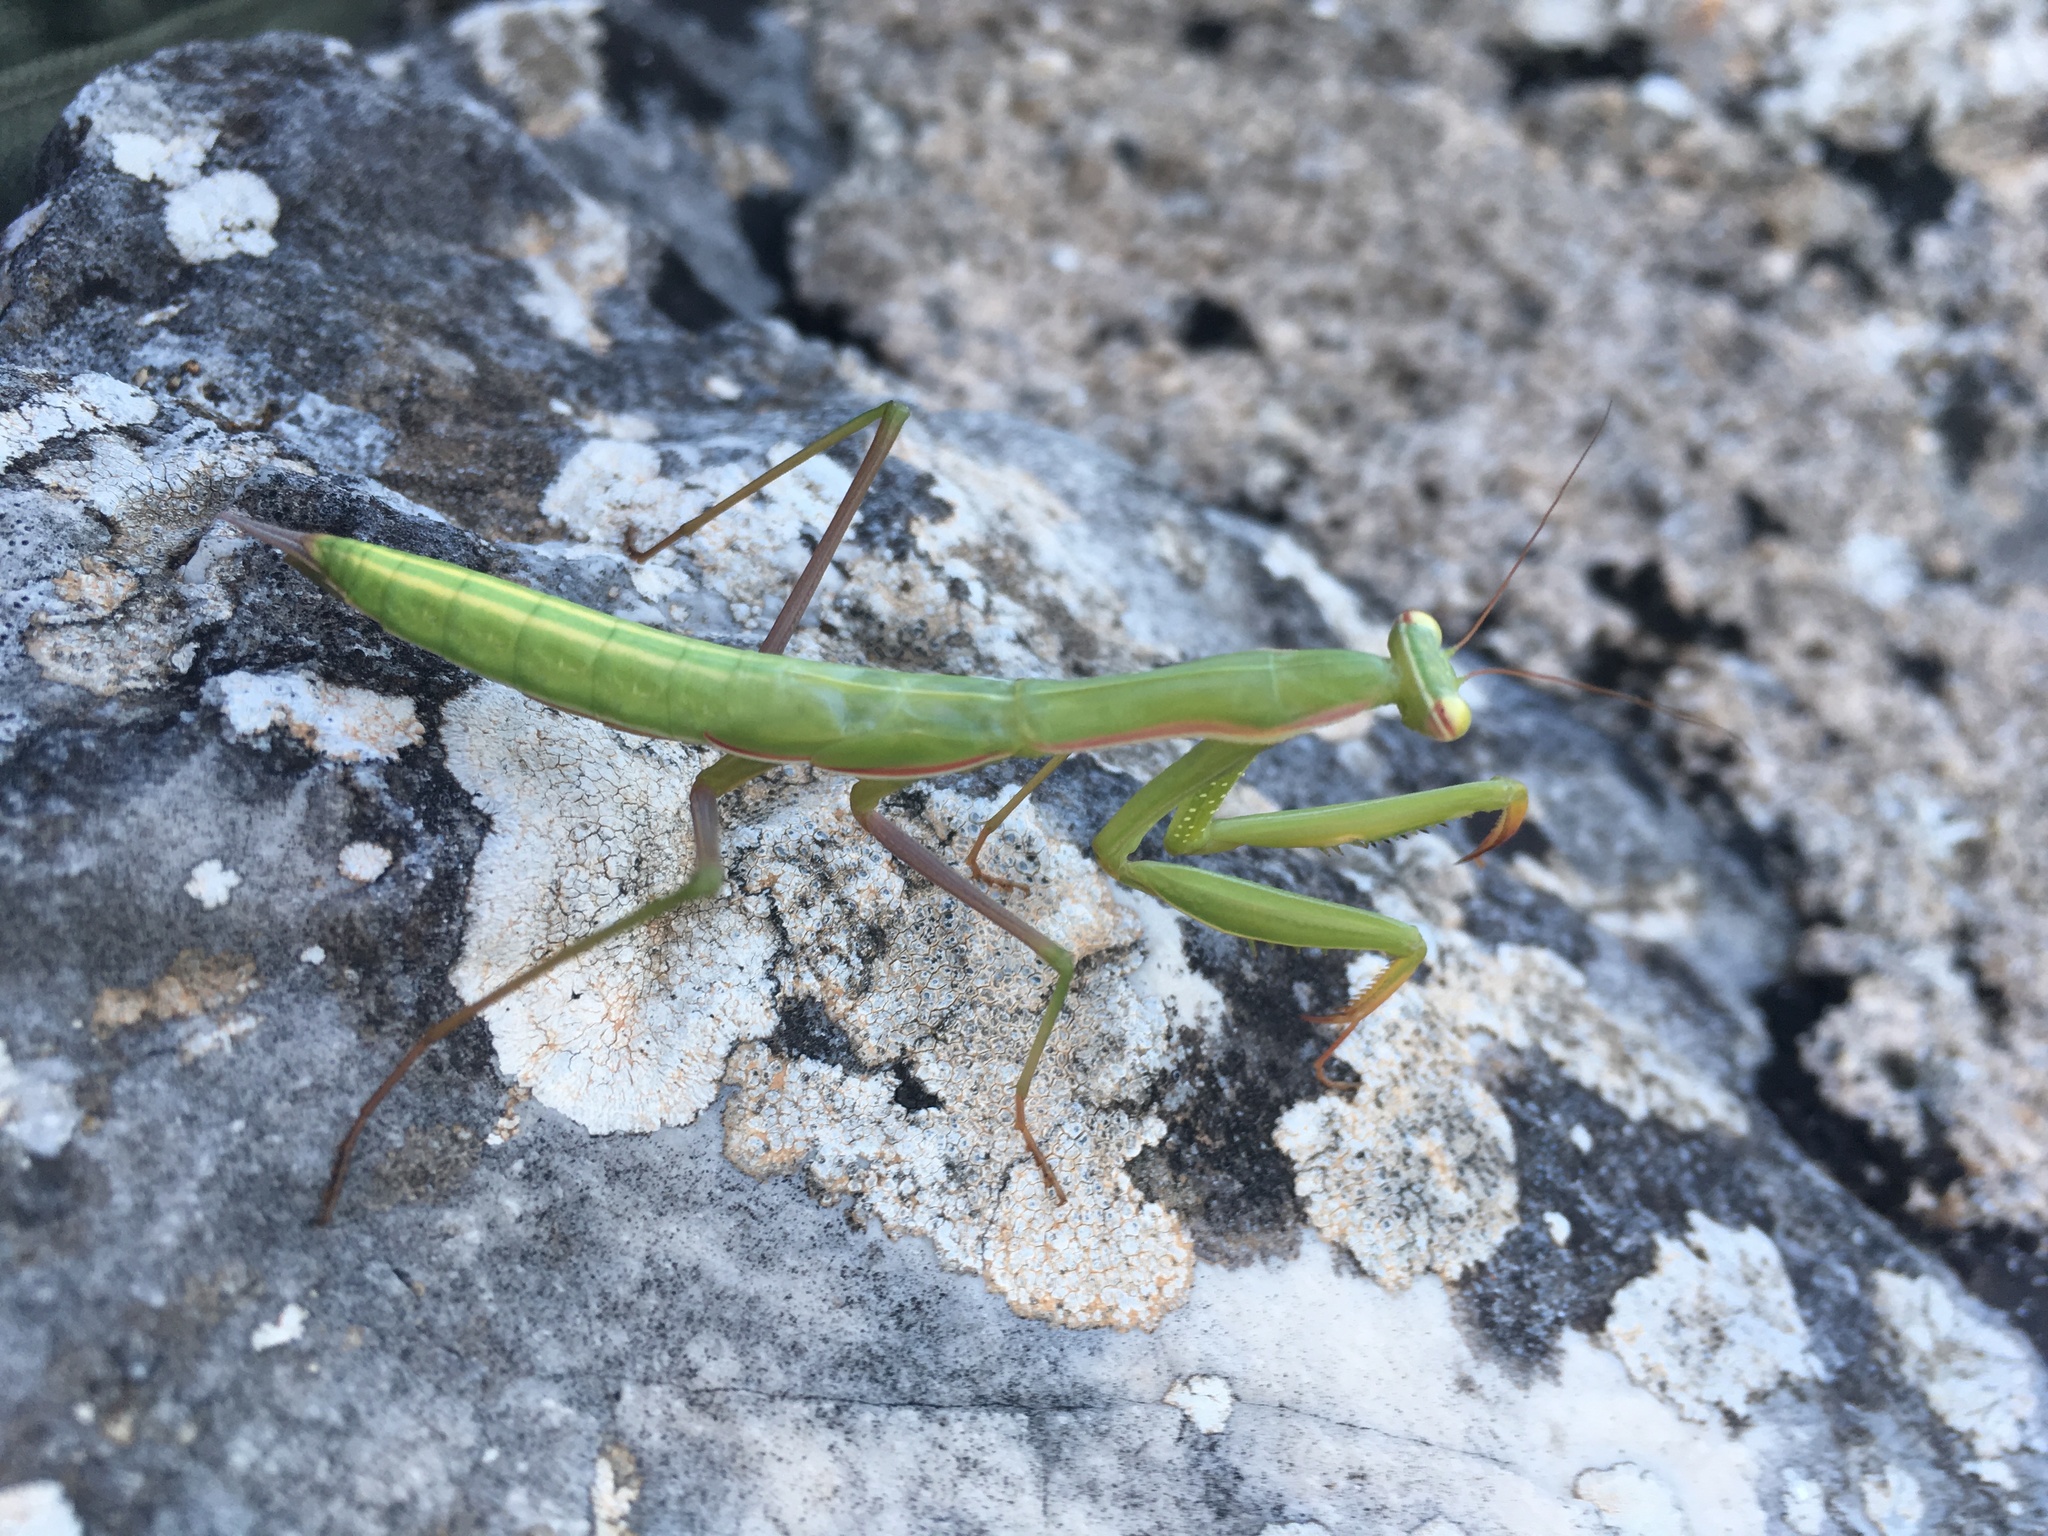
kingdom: Animalia
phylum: Arthropoda
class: Insecta
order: Mantodea
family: Mantidae
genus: Mantis
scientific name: Mantis religiosa
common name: Praying mantis
